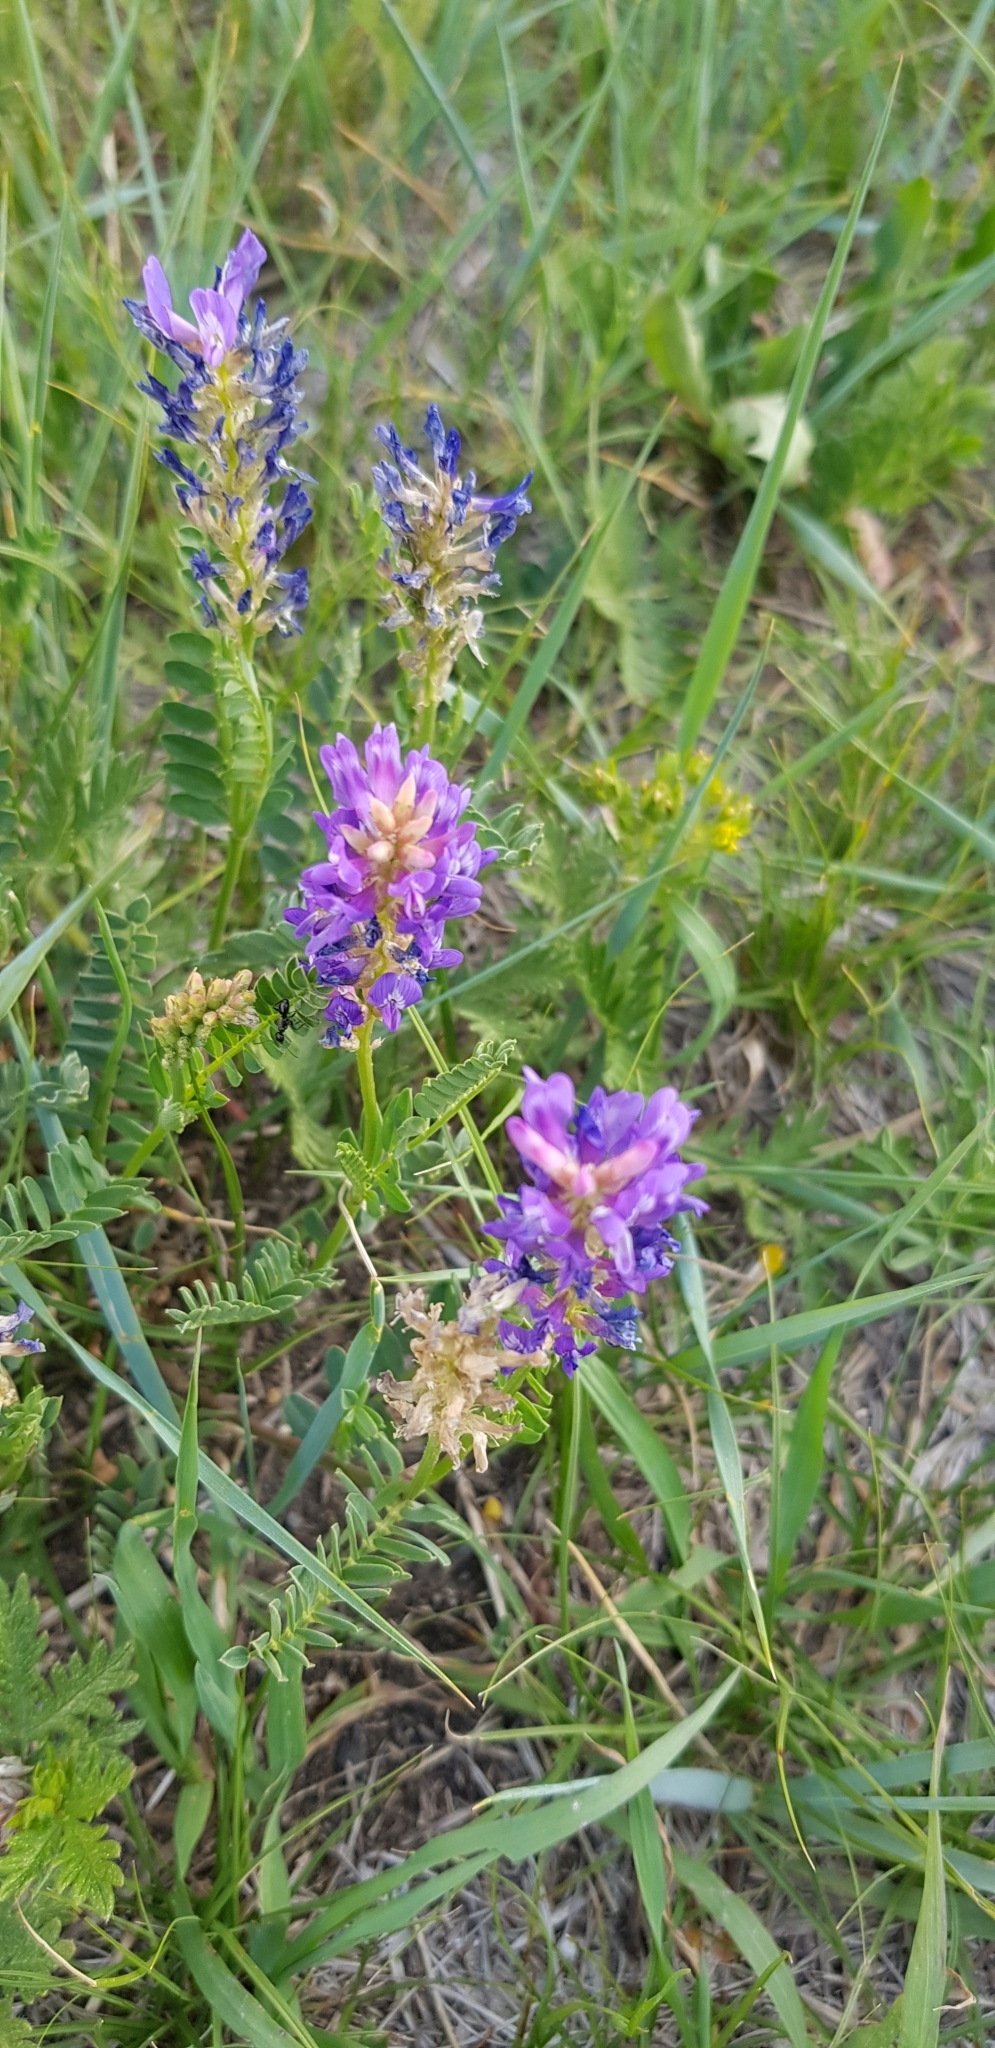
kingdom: Plantae
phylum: Tracheophyta
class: Magnoliopsida
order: Fabales
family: Fabaceae
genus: Astragalus
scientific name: Astragalus danicus
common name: Purple milk-vetch
